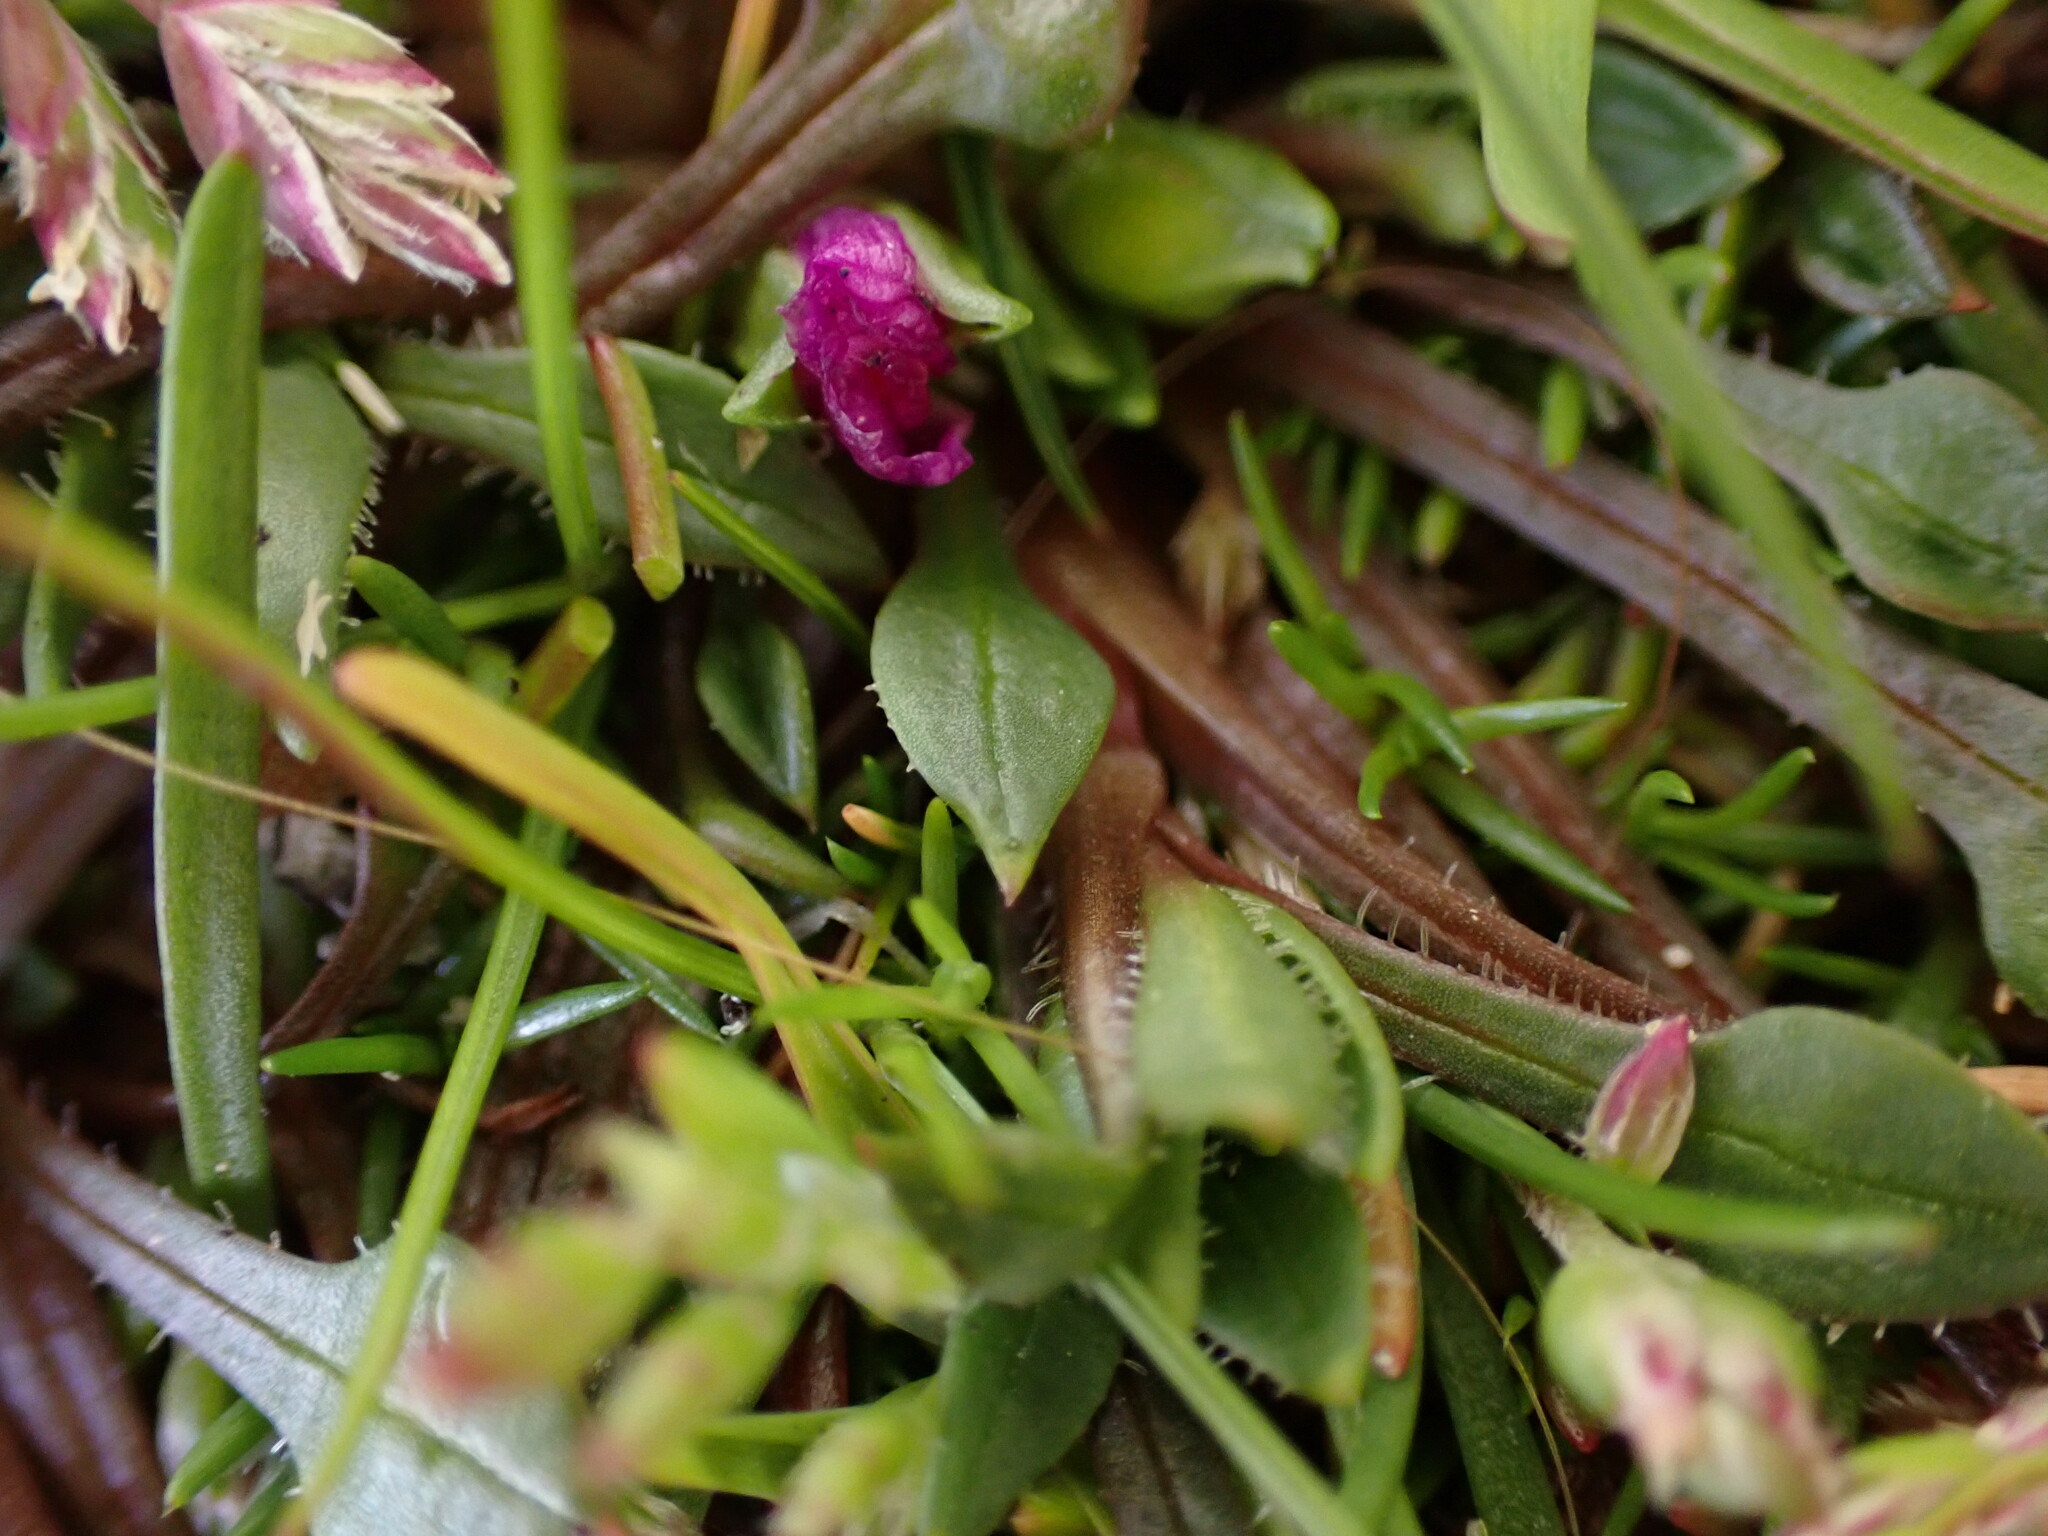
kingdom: Plantae
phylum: Tracheophyta
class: Magnoliopsida
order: Caryophyllales
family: Montiaceae
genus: Calandrinia
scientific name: Calandrinia menziesii
